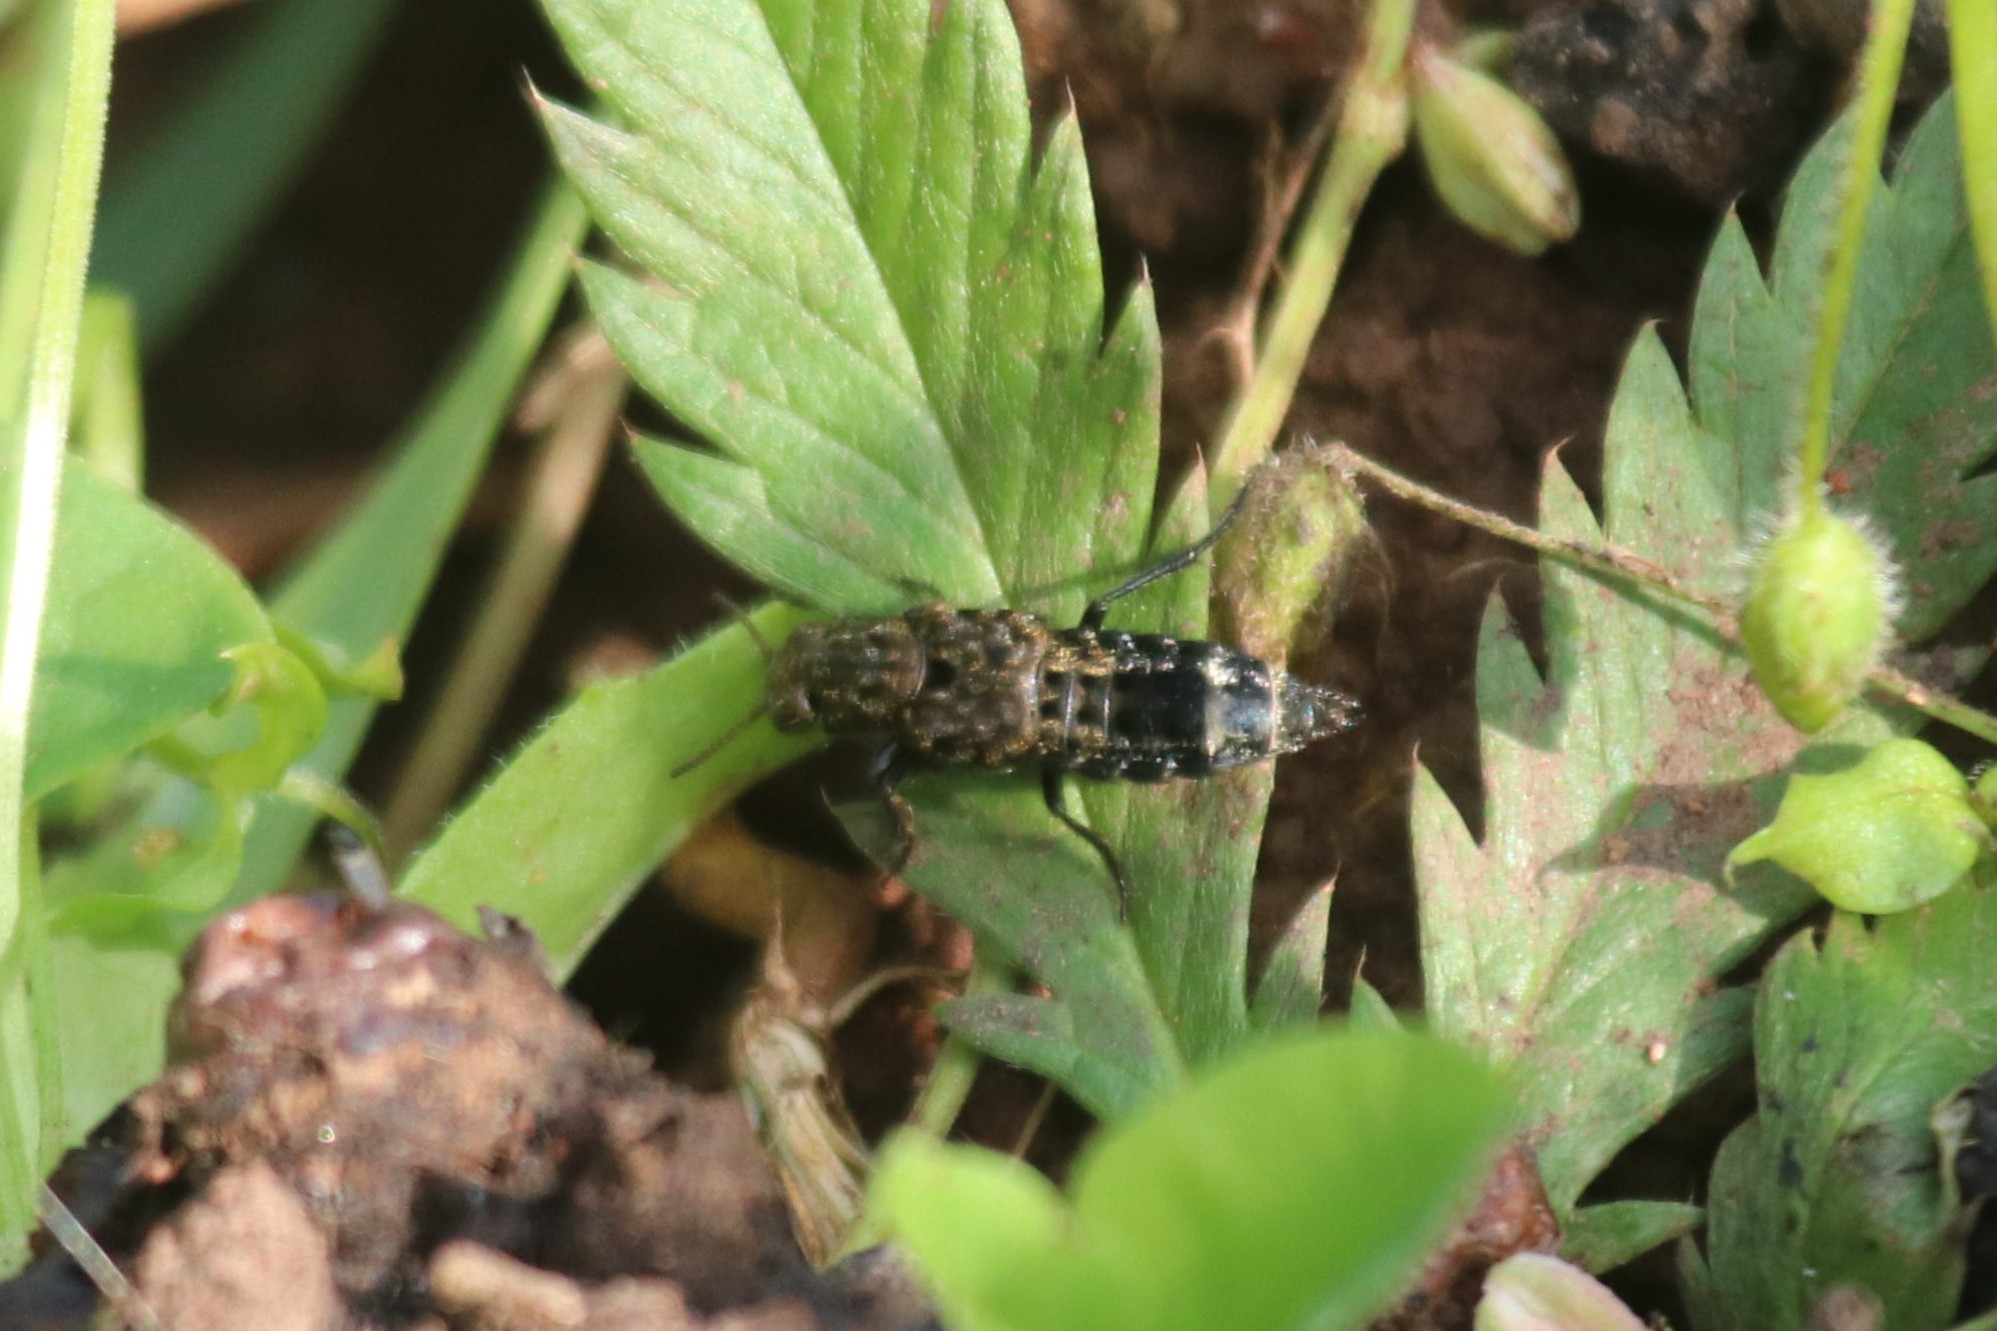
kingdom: Animalia
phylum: Arthropoda
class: Insecta
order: Coleoptera
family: Staphylinidae
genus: Ontholestes
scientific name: Ontholestes murinus
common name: Staph beetle
